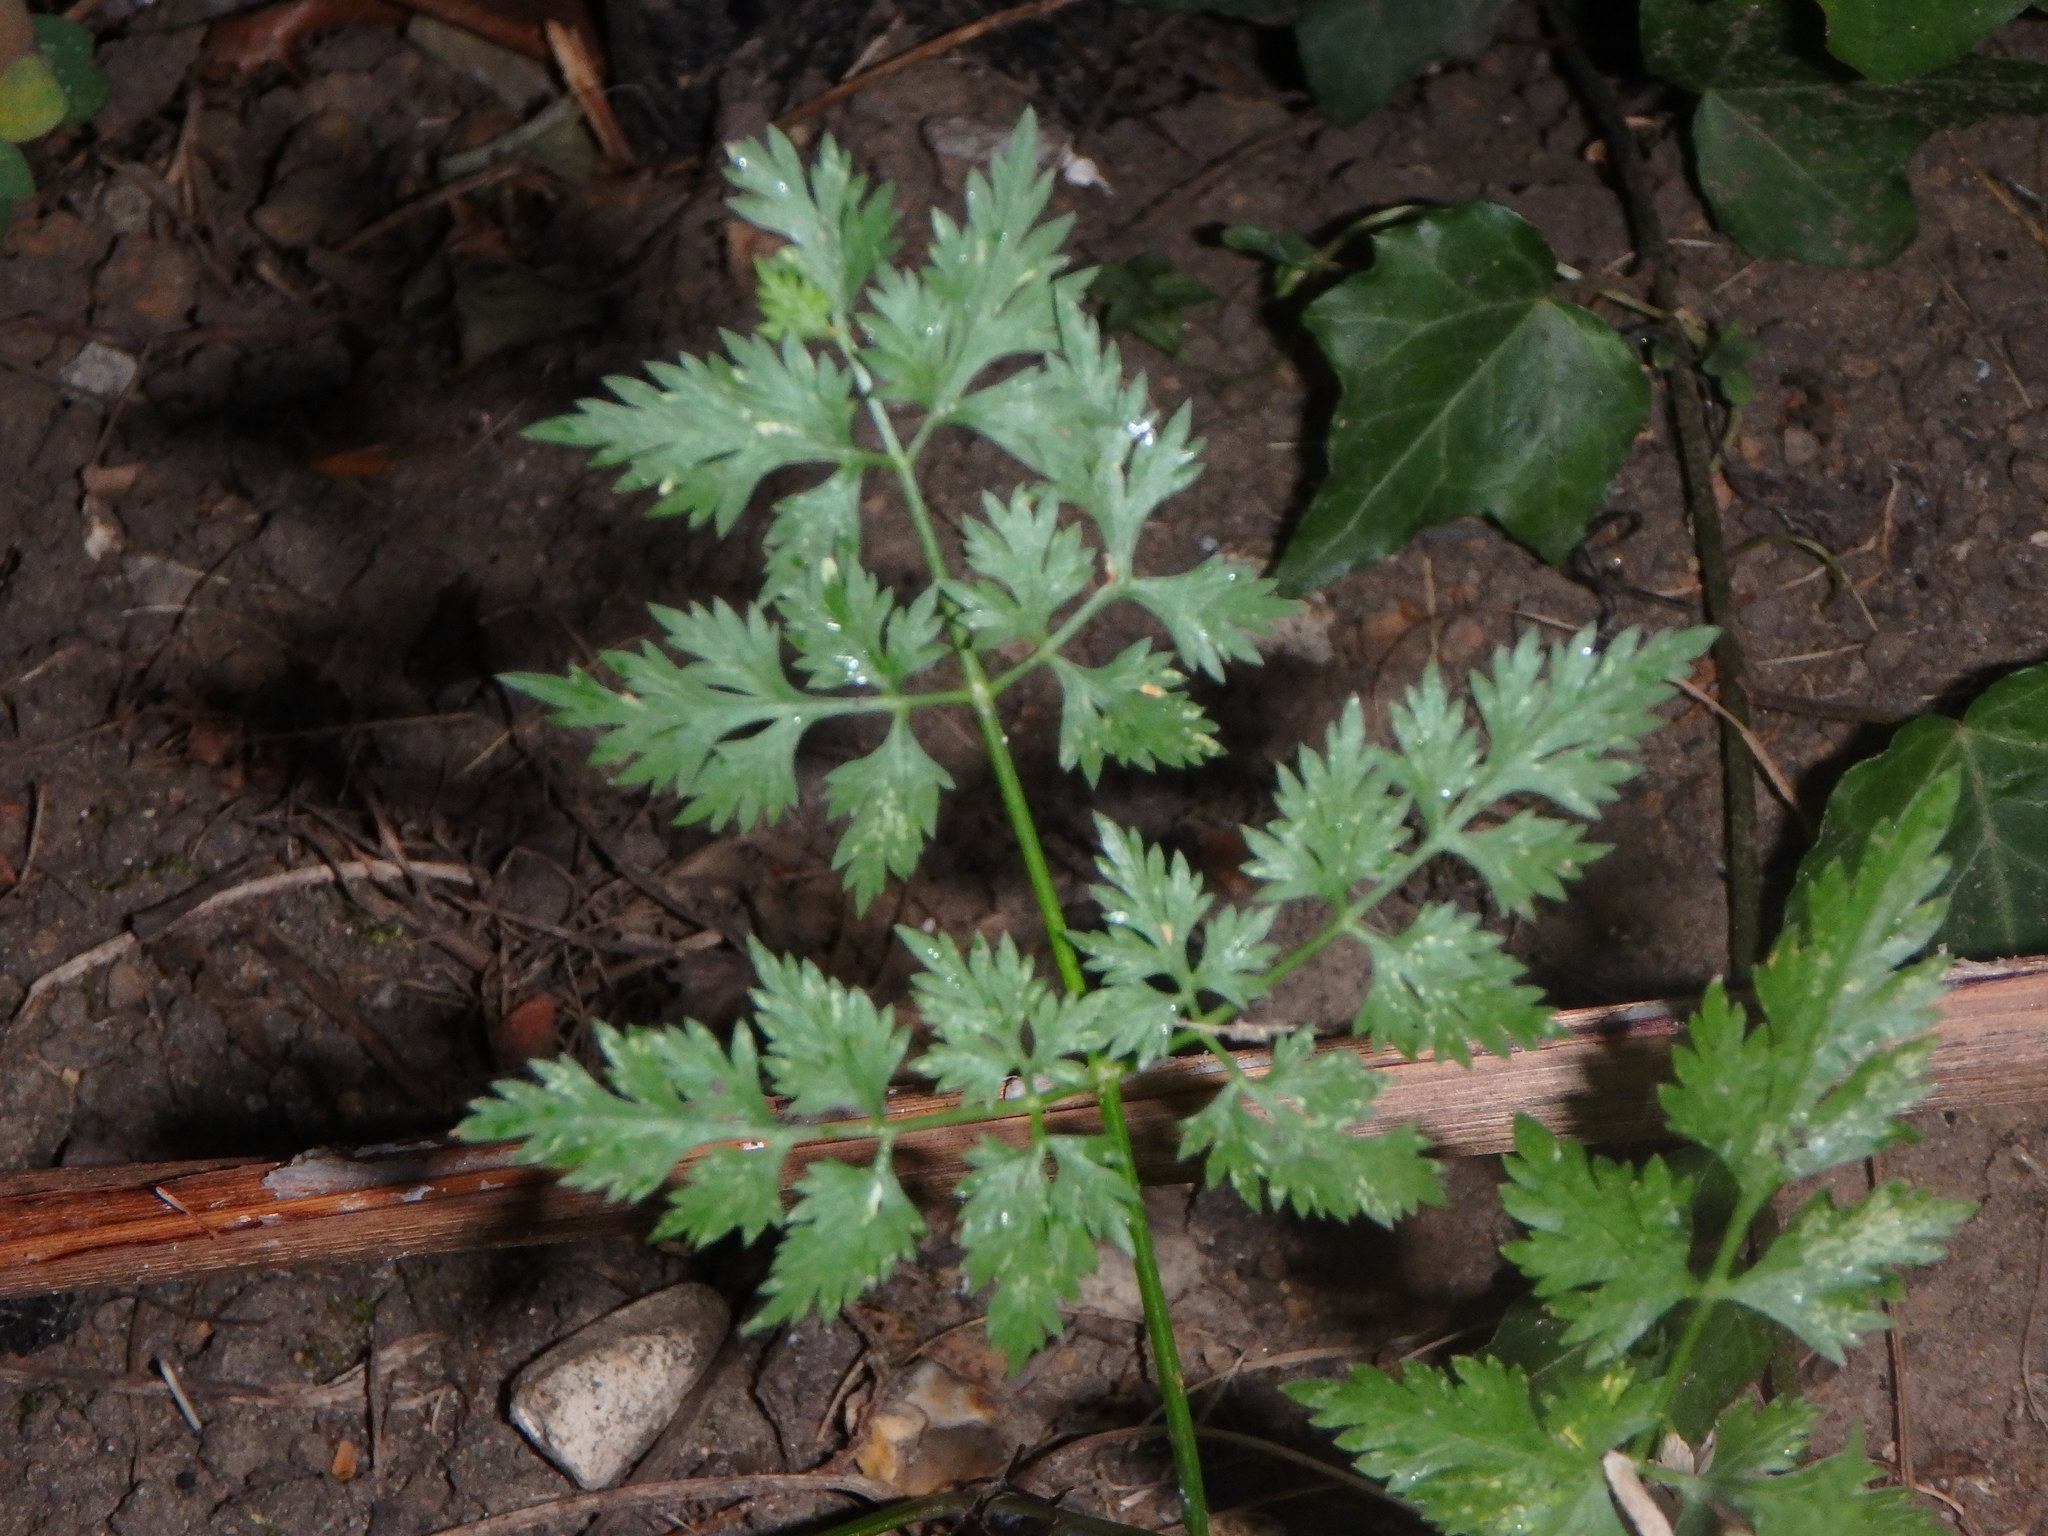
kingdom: Plantae
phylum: Tracheophyta
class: Magnoliopsida
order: Apiales
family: Apiaceae
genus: Aethusa
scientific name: Aethusa cynapium
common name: Fool's parsley
